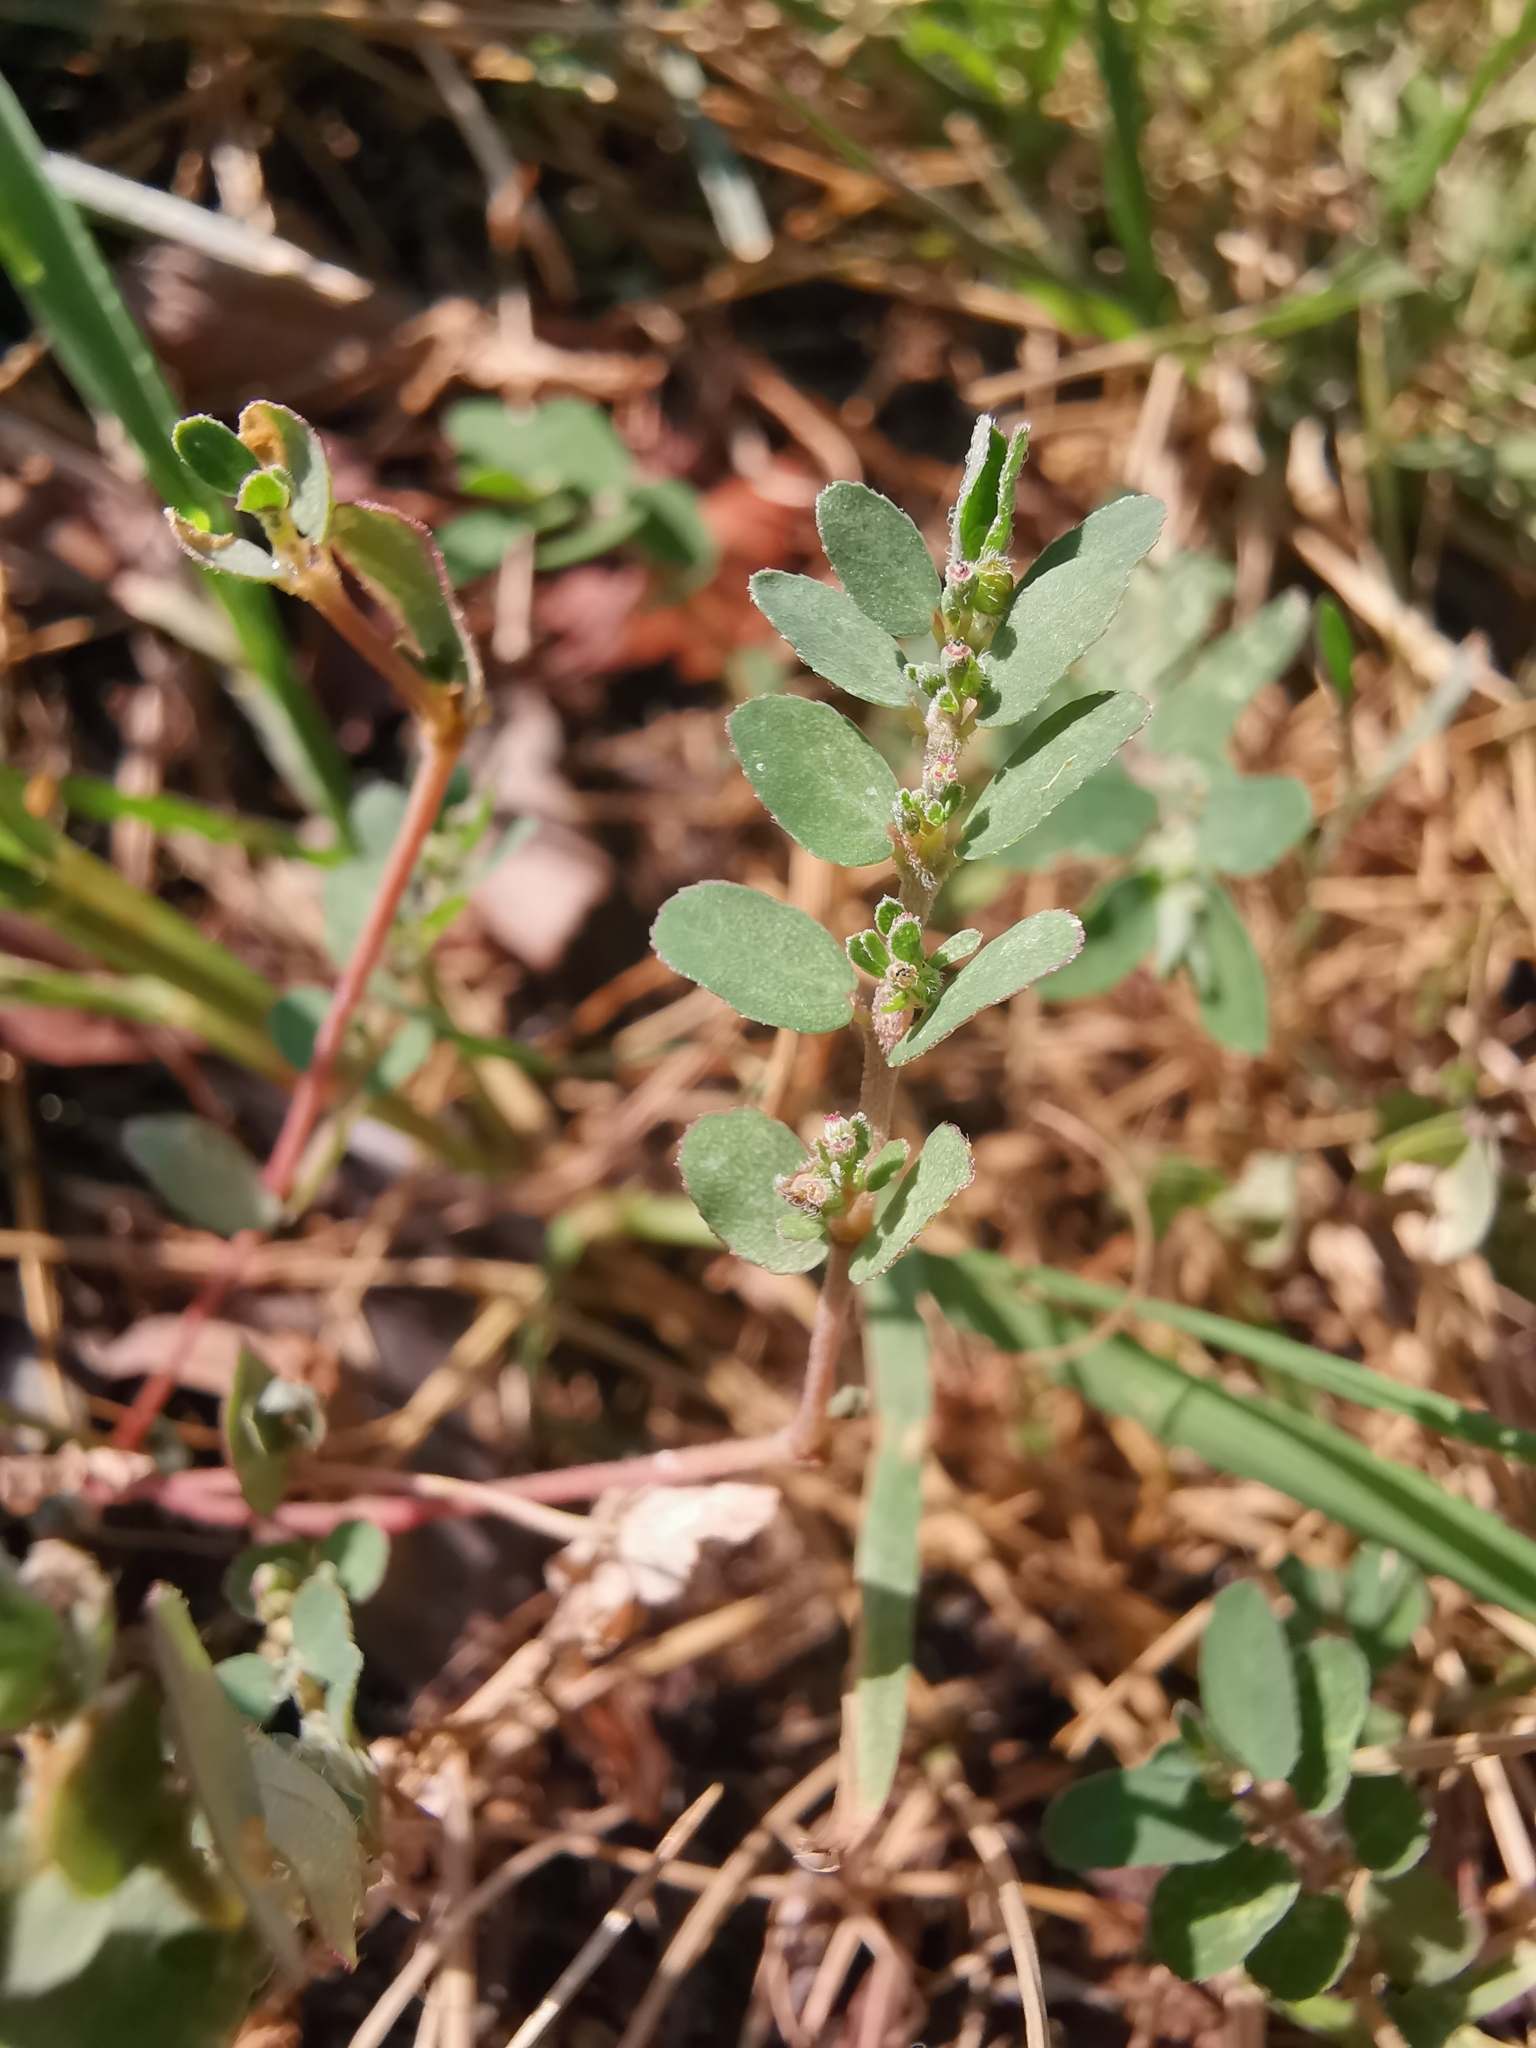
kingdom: Plantae
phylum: Tracheophyta
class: Magnoliopsida
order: Malpighiales
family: Euphorbiaceae
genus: Euphorbia
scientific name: Euphorbia prostrata
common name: Prostrate sandmat
